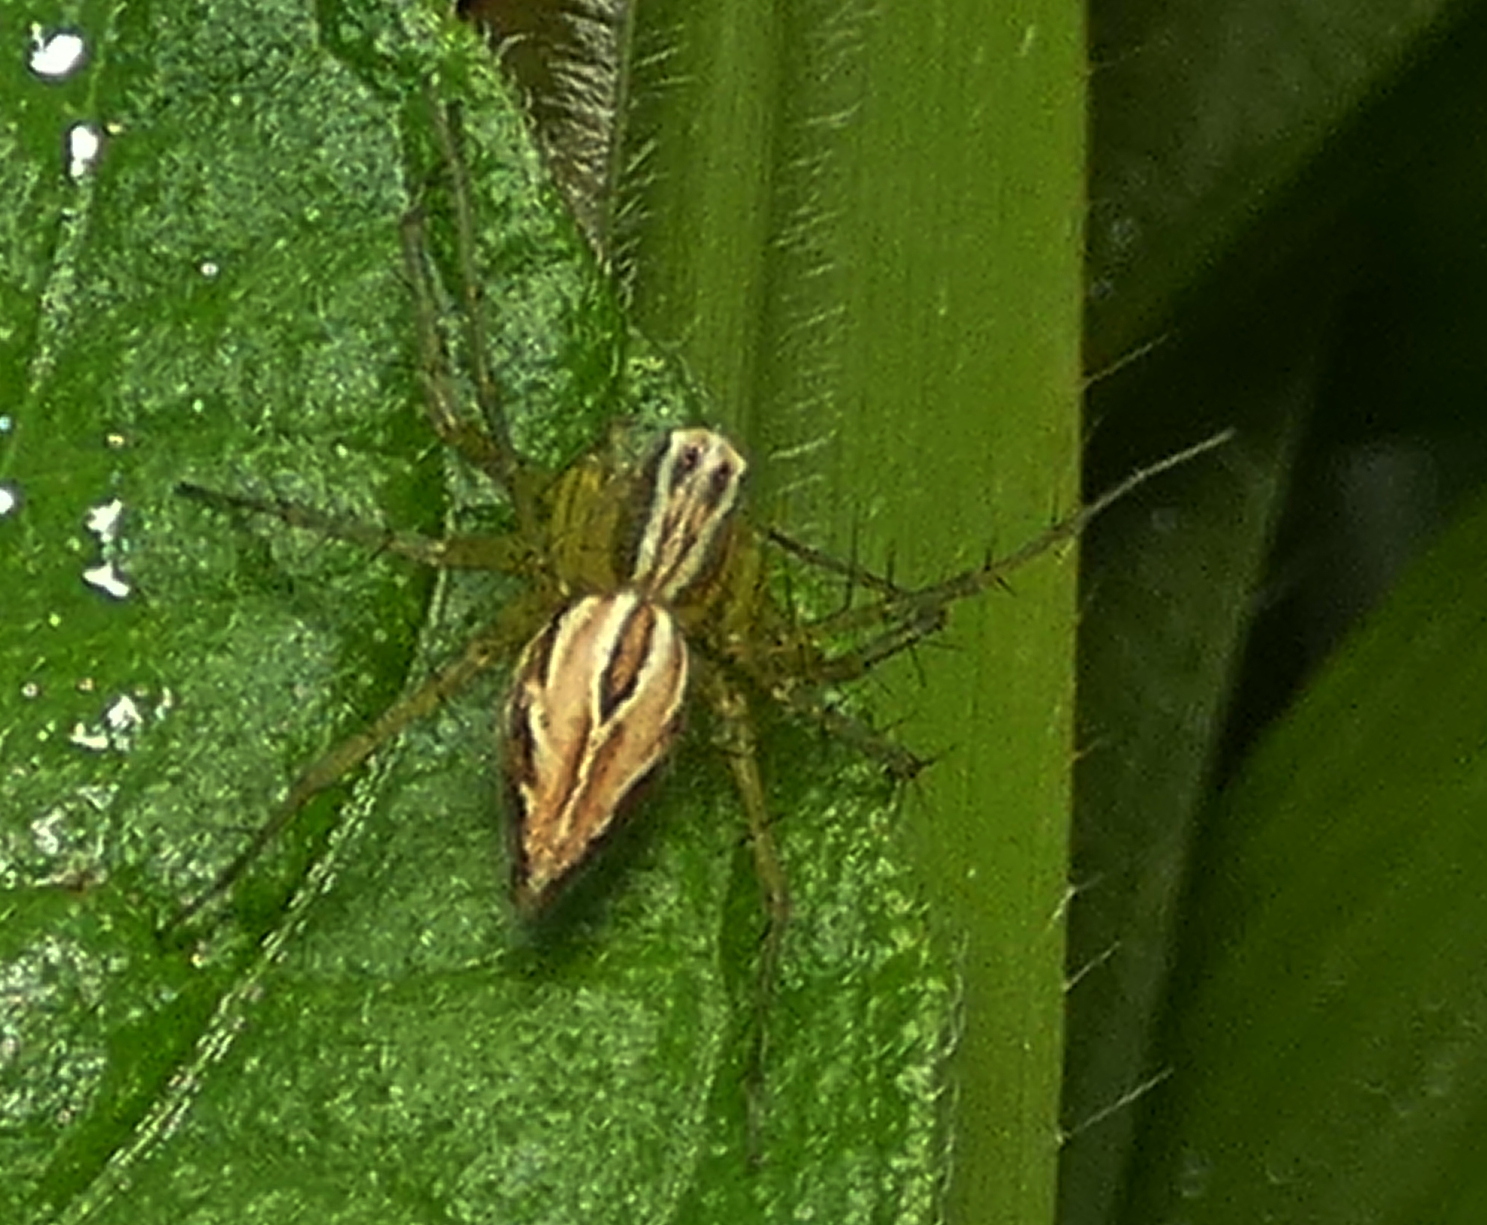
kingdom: Animalia
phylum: Arthropoda
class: Arachnida
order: Araneae
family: Oxyopidae
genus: Oxyopes
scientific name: Oxyopes salticus
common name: Lynx spiders
